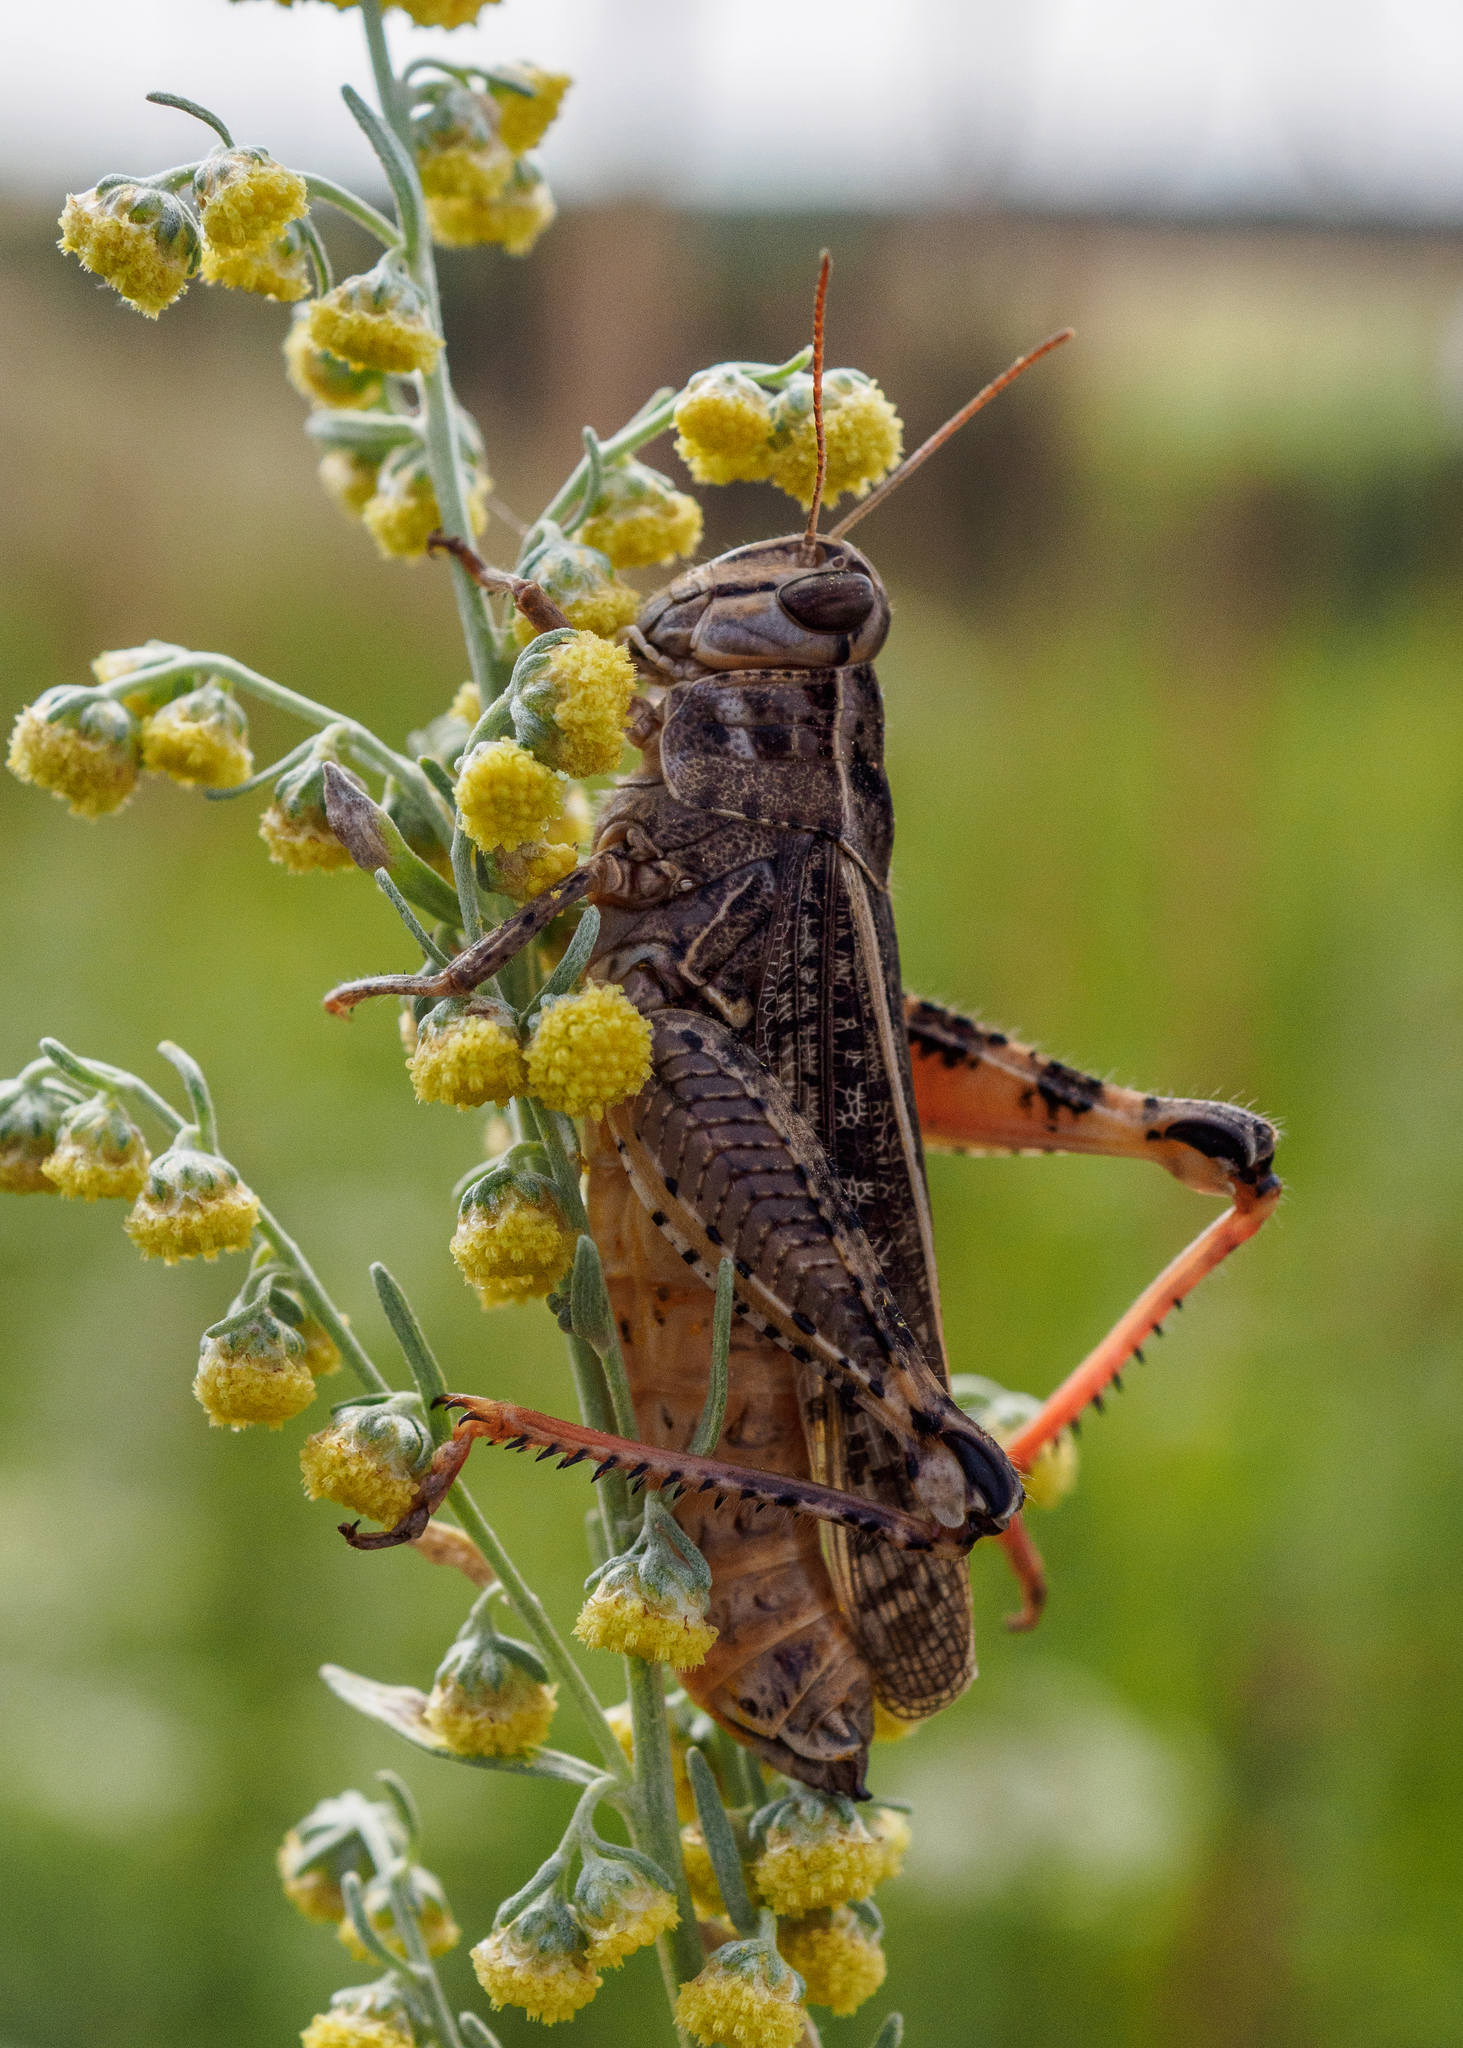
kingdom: Animalia
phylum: Arthropoda
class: Insecta
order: Orthoptera
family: Acrididae
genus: Calliptamus
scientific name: Calliptamus italicus
